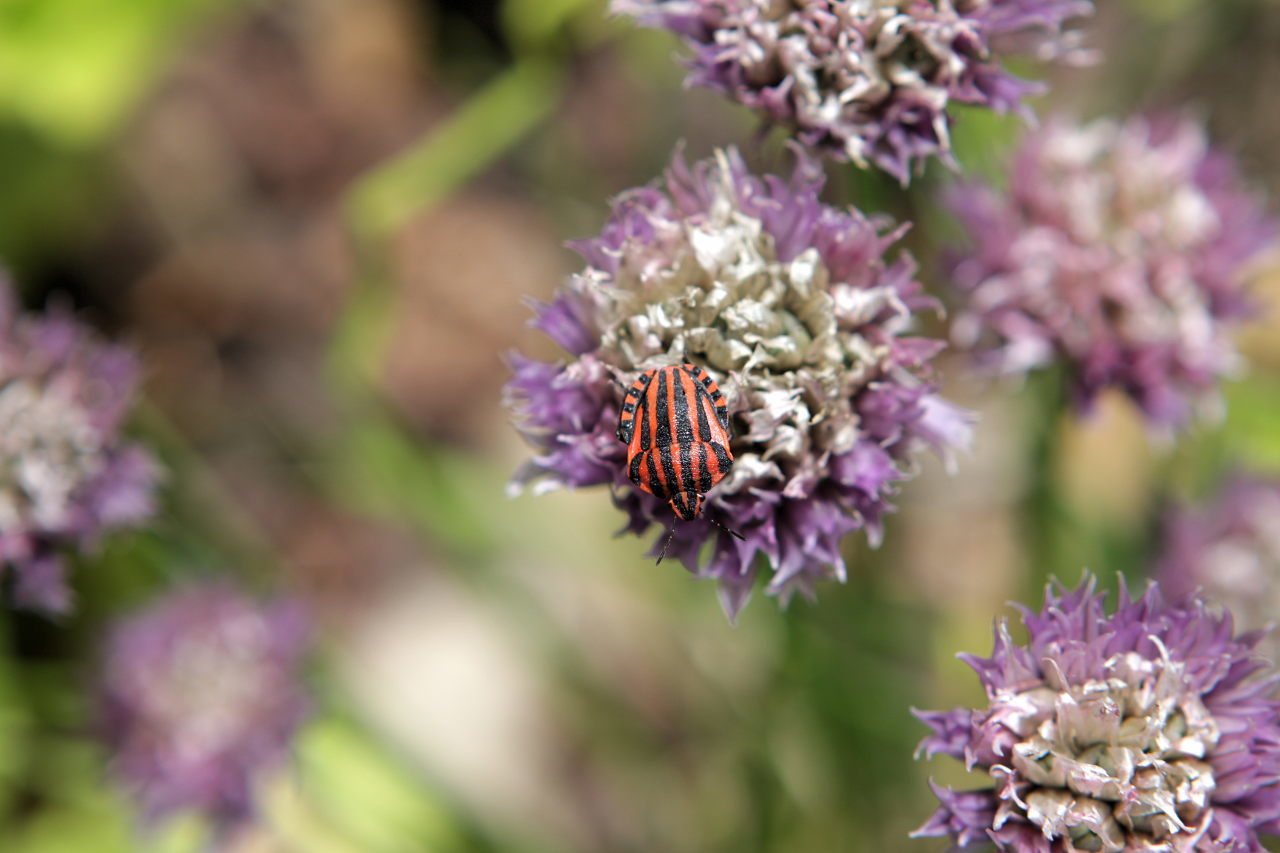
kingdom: Animalia
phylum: Arthropoda
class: Insecta
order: Hemiptera
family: Pentatomidae
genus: Graphosoma
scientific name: Graphosoma italicum
